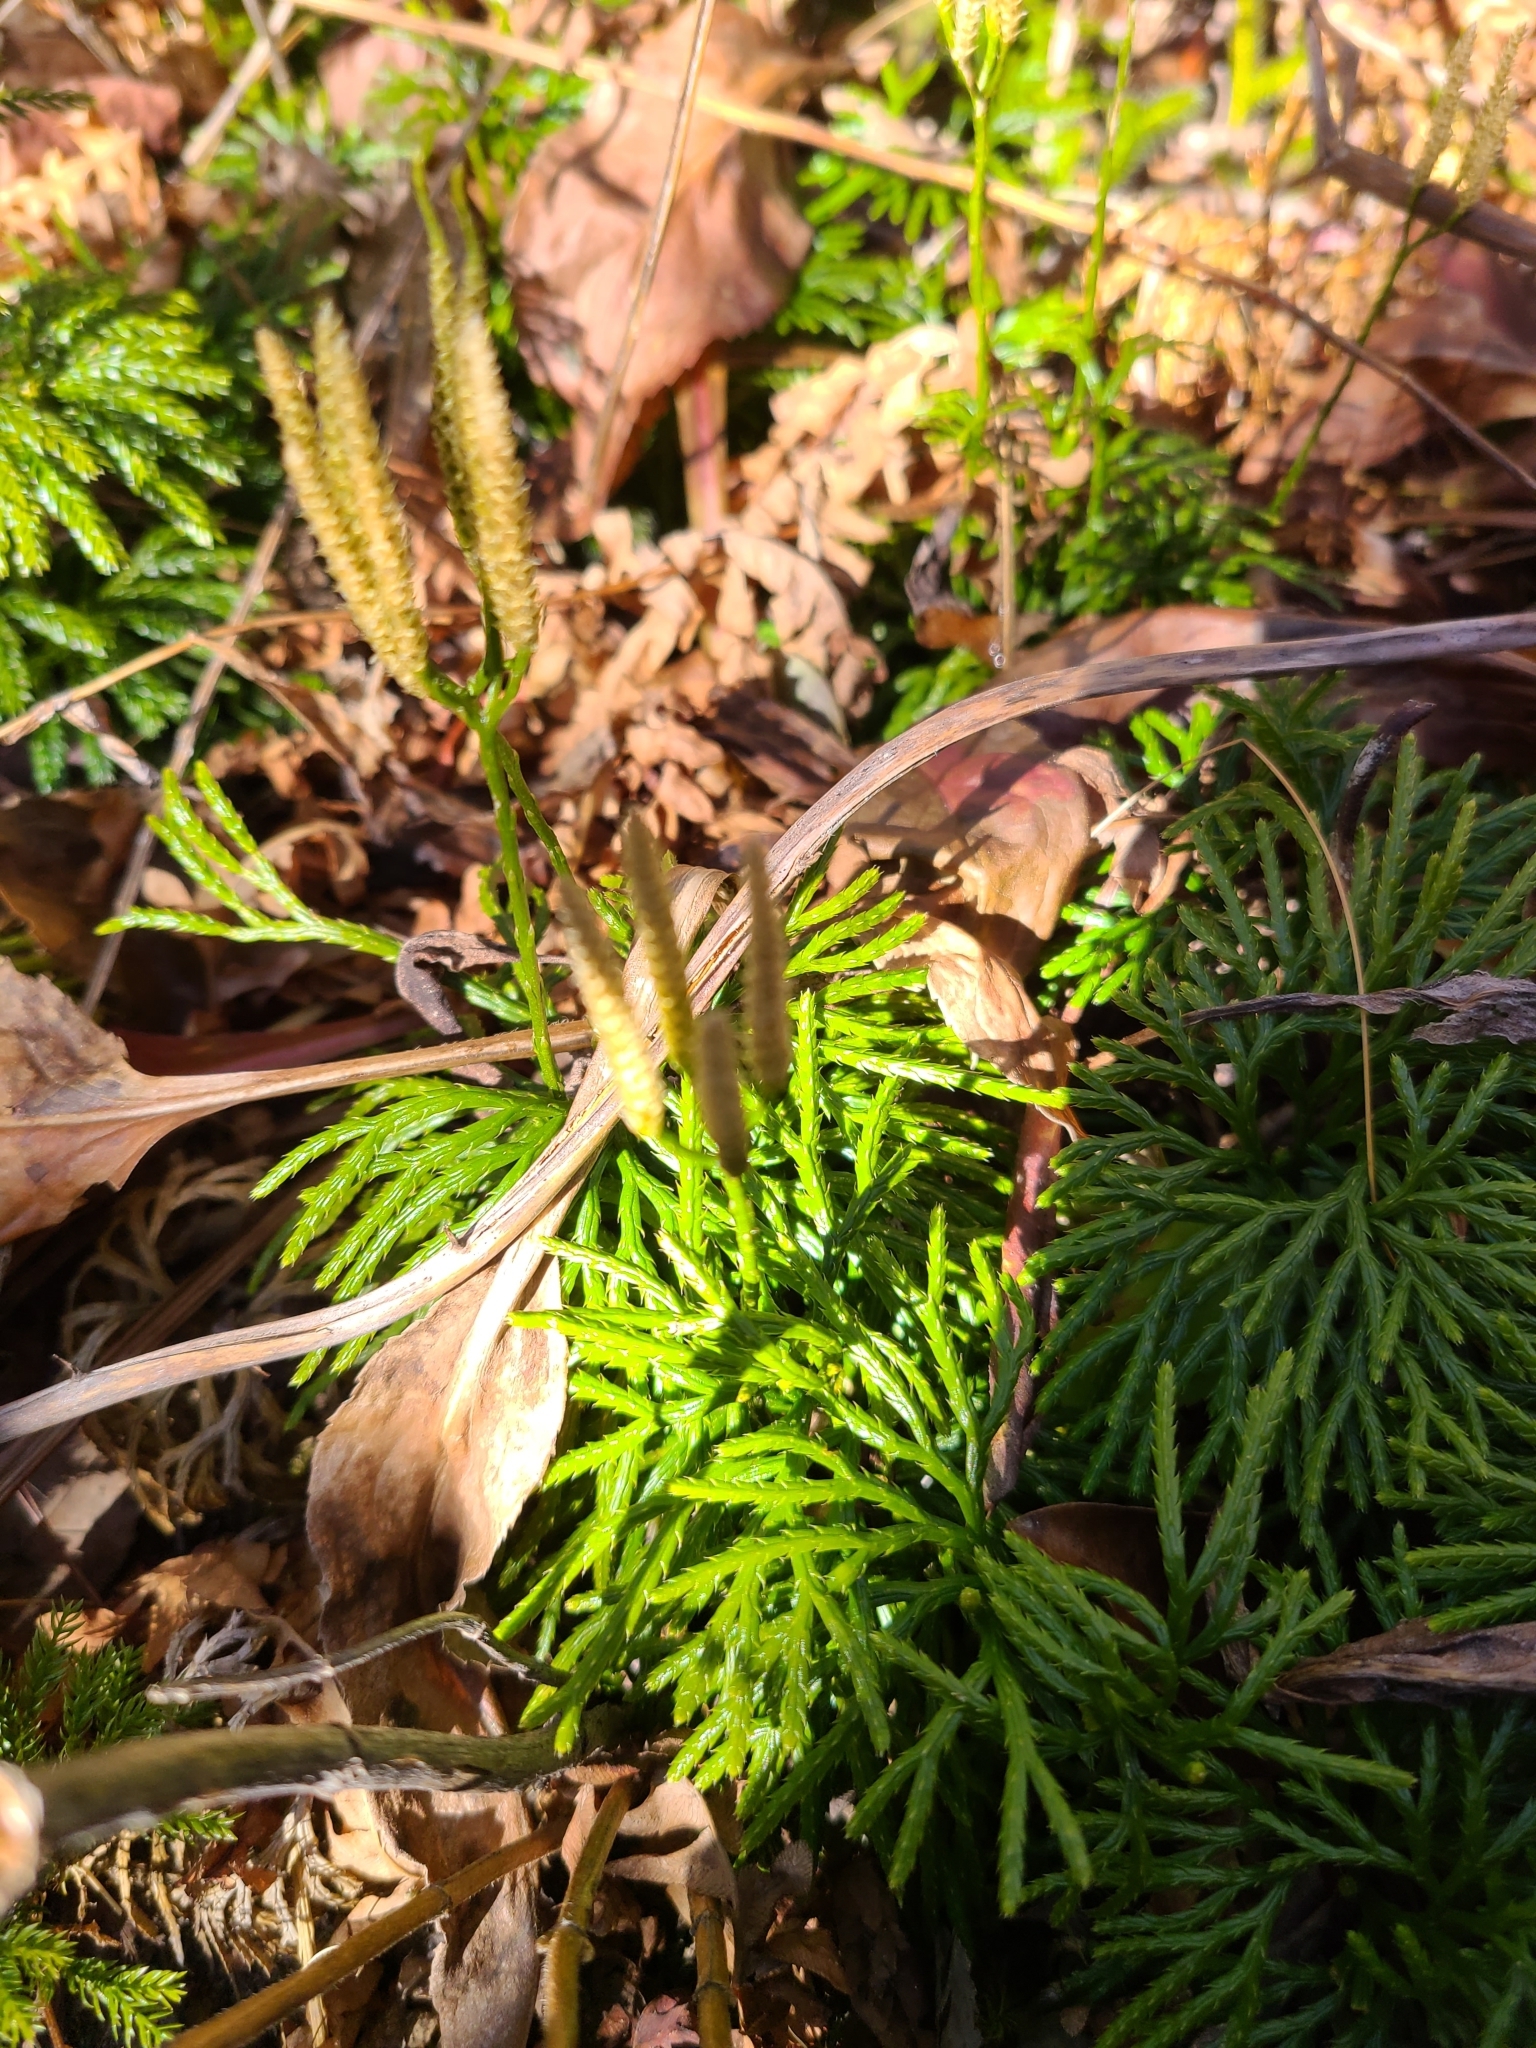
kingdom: Plantae
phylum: Tracheophyta
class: Lycopodiopsida
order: Lycopodiales
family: Lycopodiaceae
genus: Diphasiastrum
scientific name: Diphasiastrum digitatum
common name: Southern running-pine
